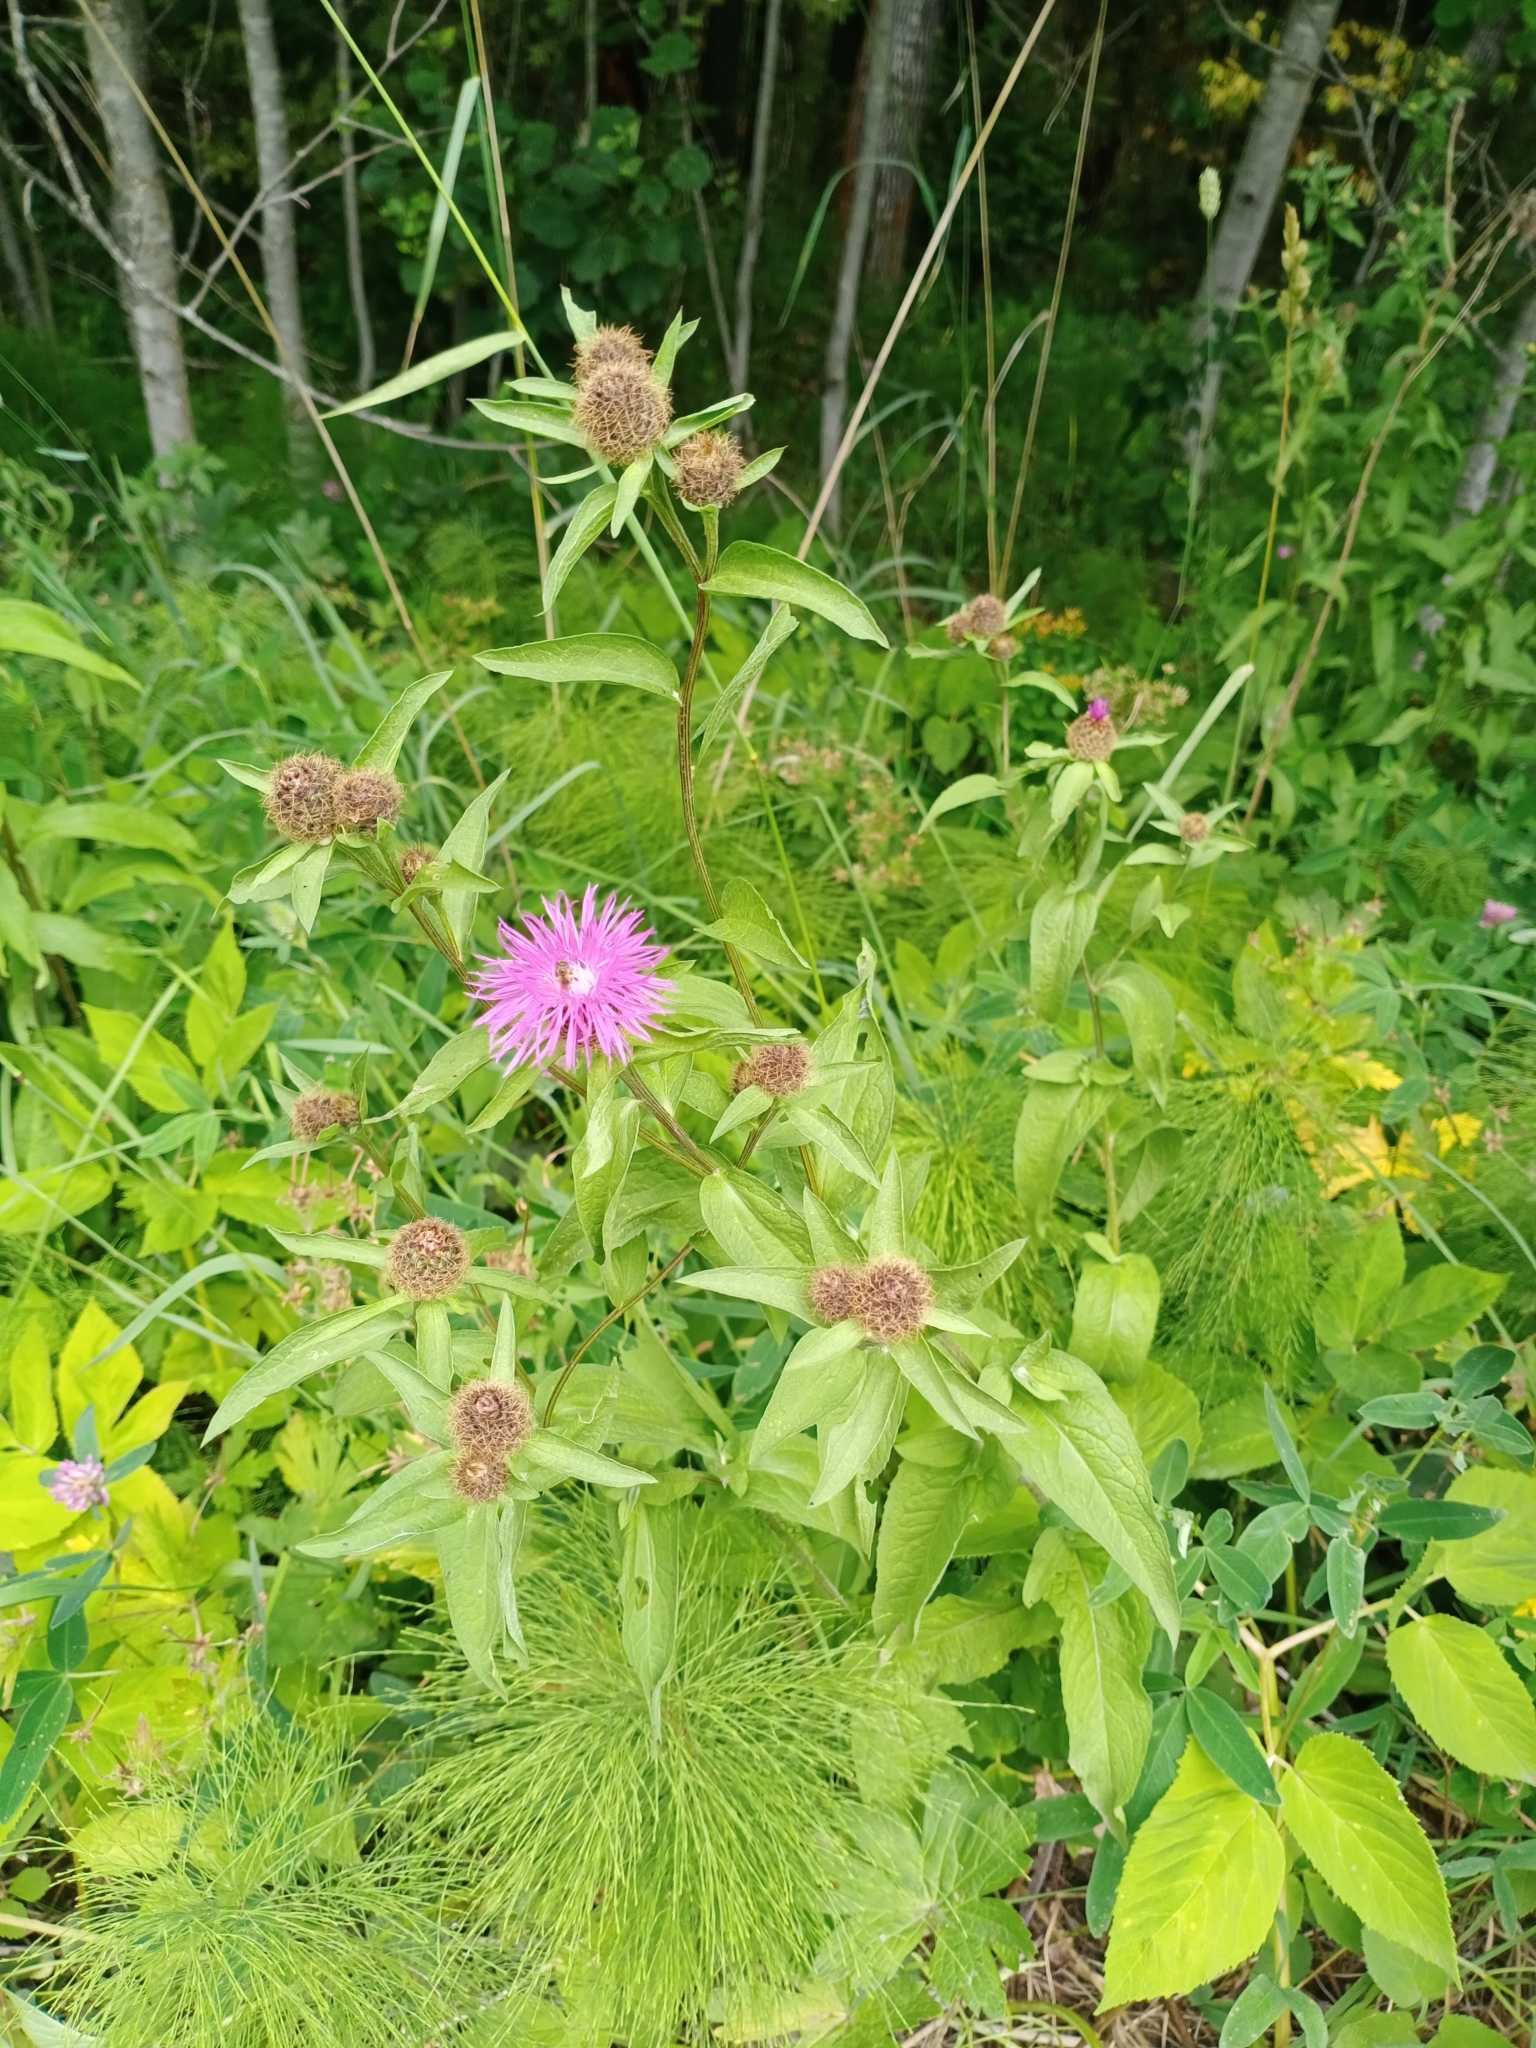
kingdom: Plantae
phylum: Tracheophyta
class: Magnoliopsida
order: Asterales
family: Asteraceae
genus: Centaurea
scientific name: Centaurea pseudophrygia
